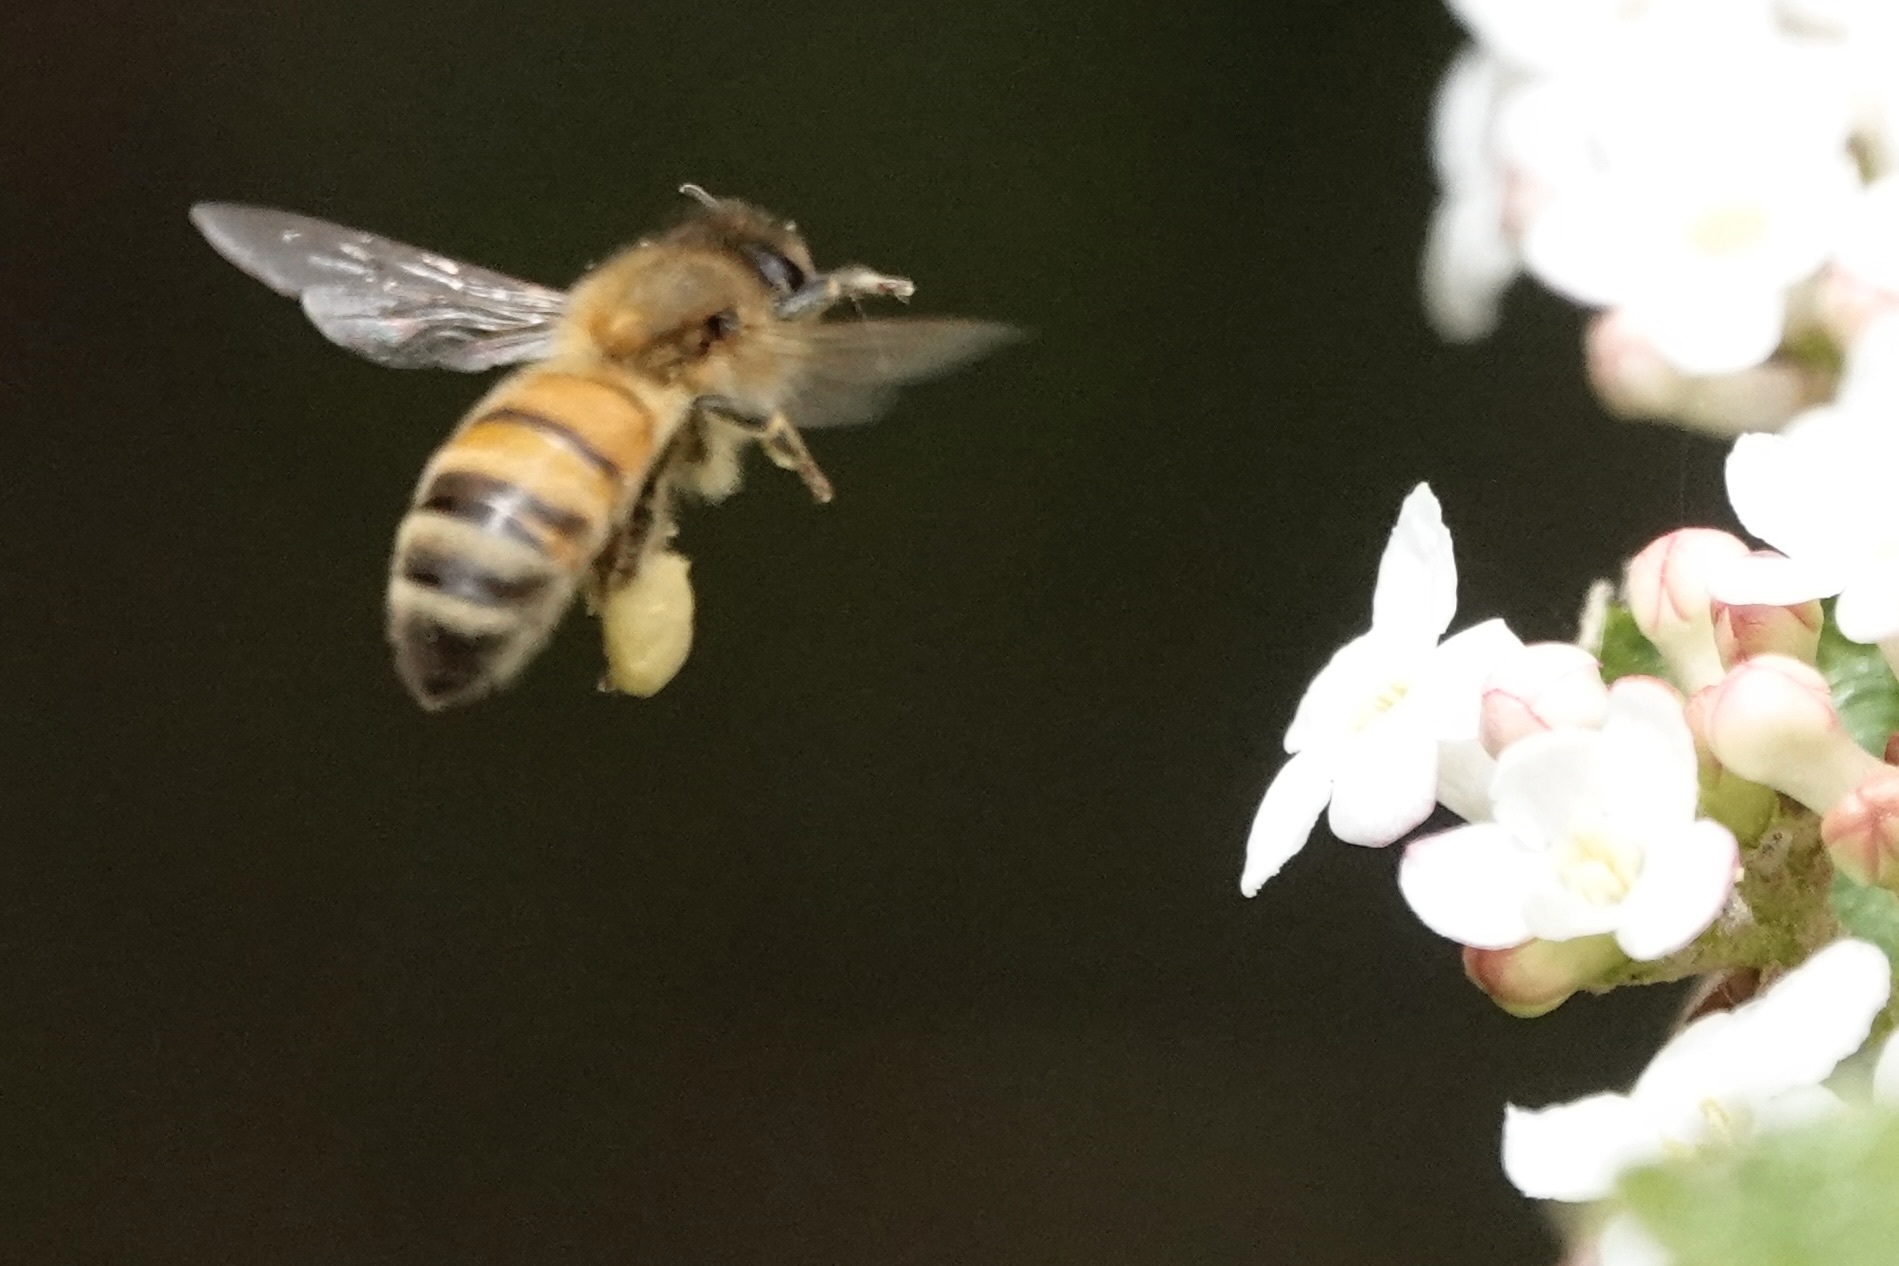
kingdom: Animalia
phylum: Arthropoda
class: Insecta
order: Hymenoptera
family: Apidae
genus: Apis
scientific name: Apis mellifera
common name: Honey bee
